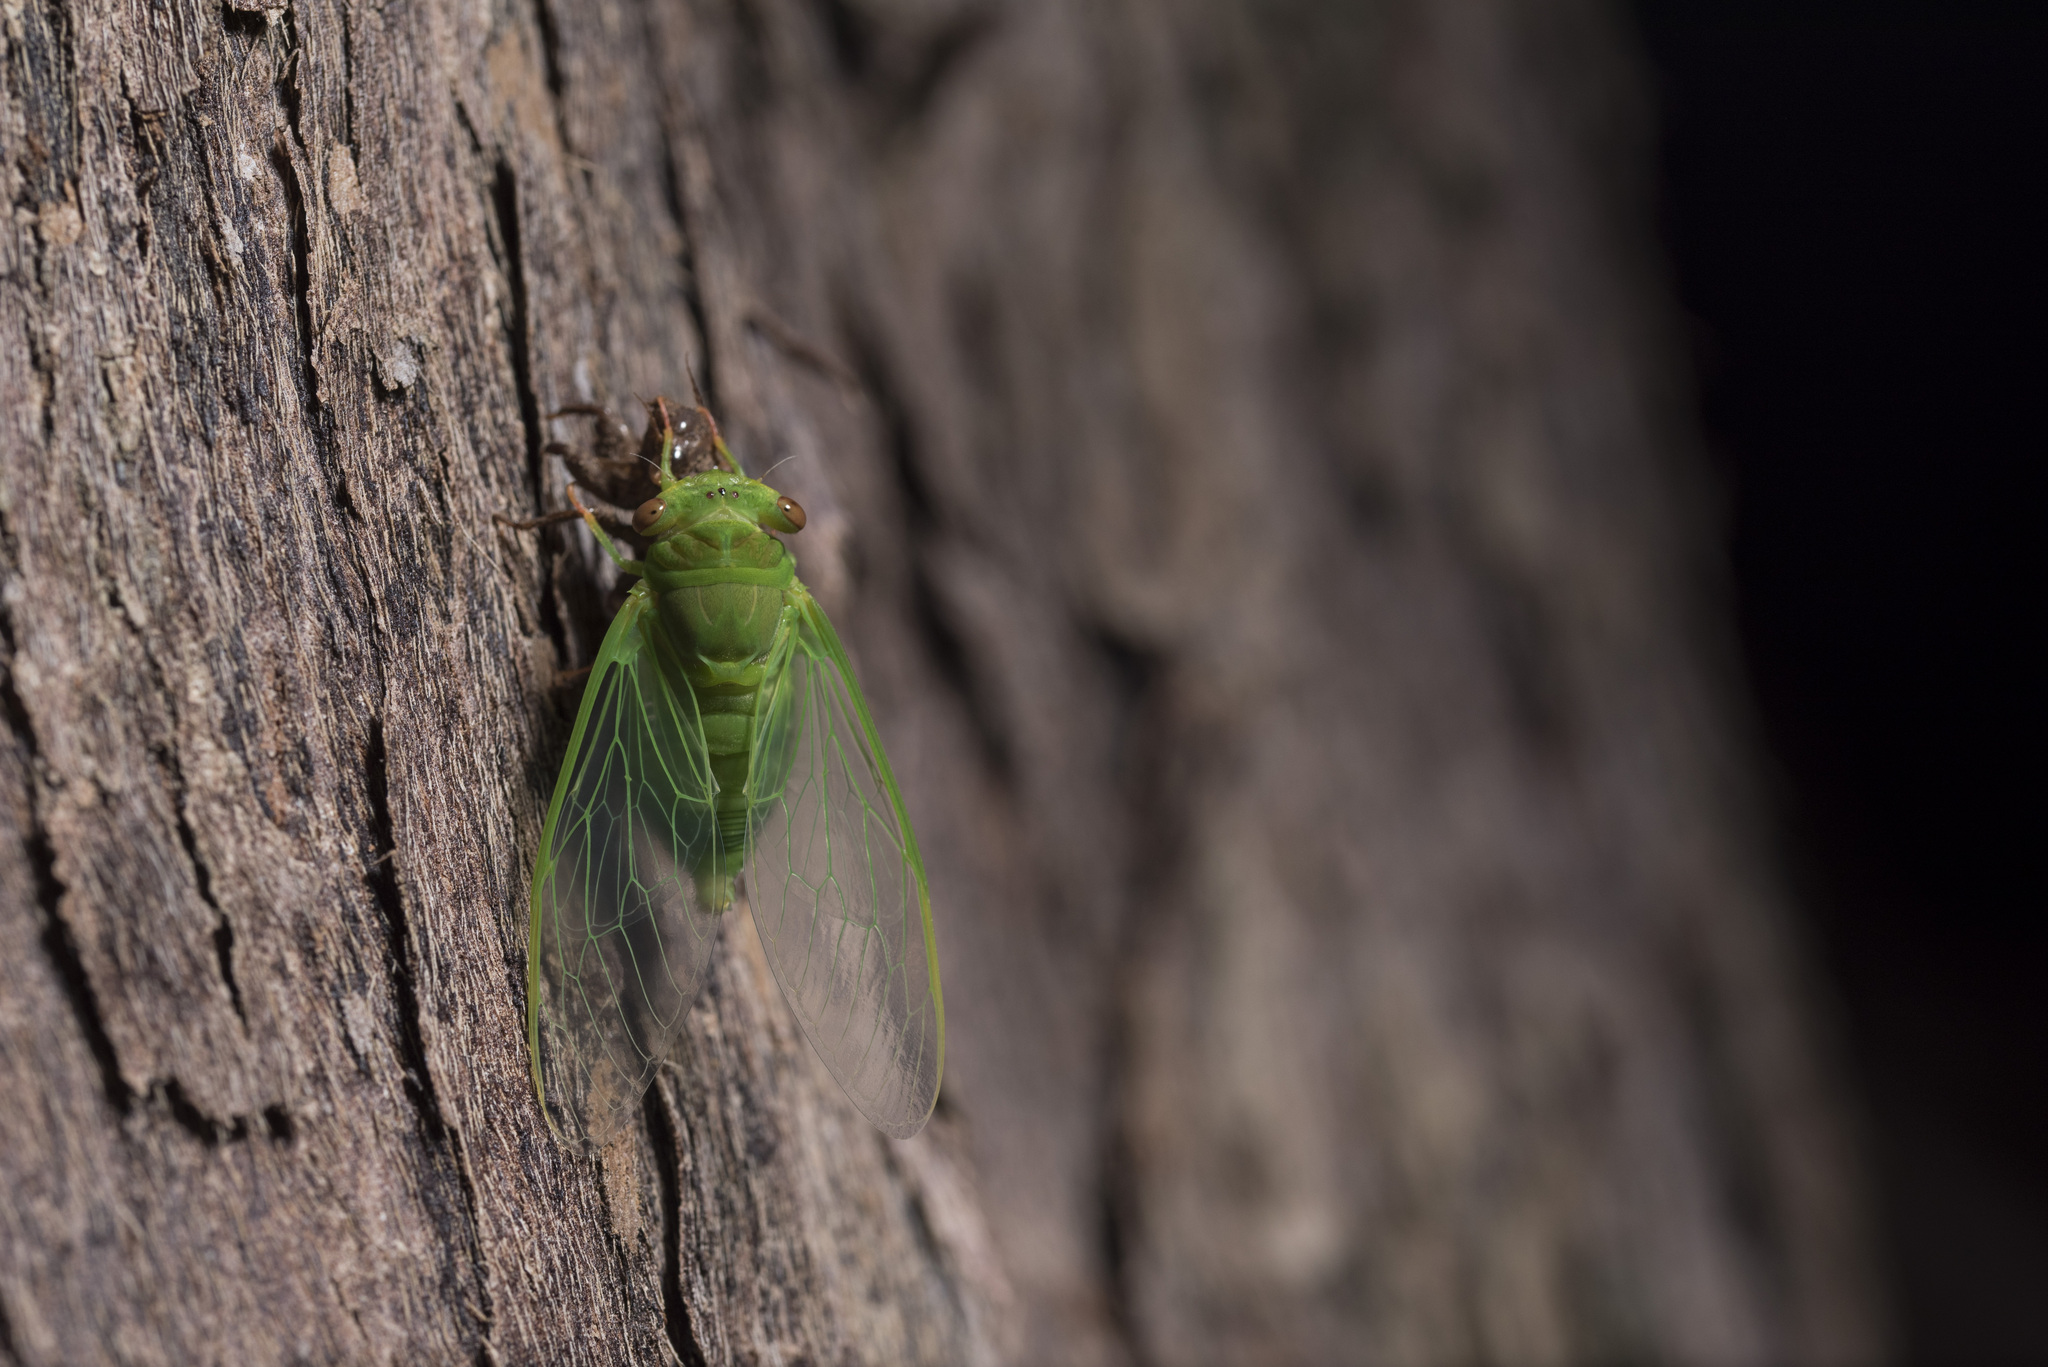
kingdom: Animalia
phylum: Arthropoda
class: Insecta
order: Hemiptera
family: Cicadidae
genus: Chremistica
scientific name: Chremistica ochracea
